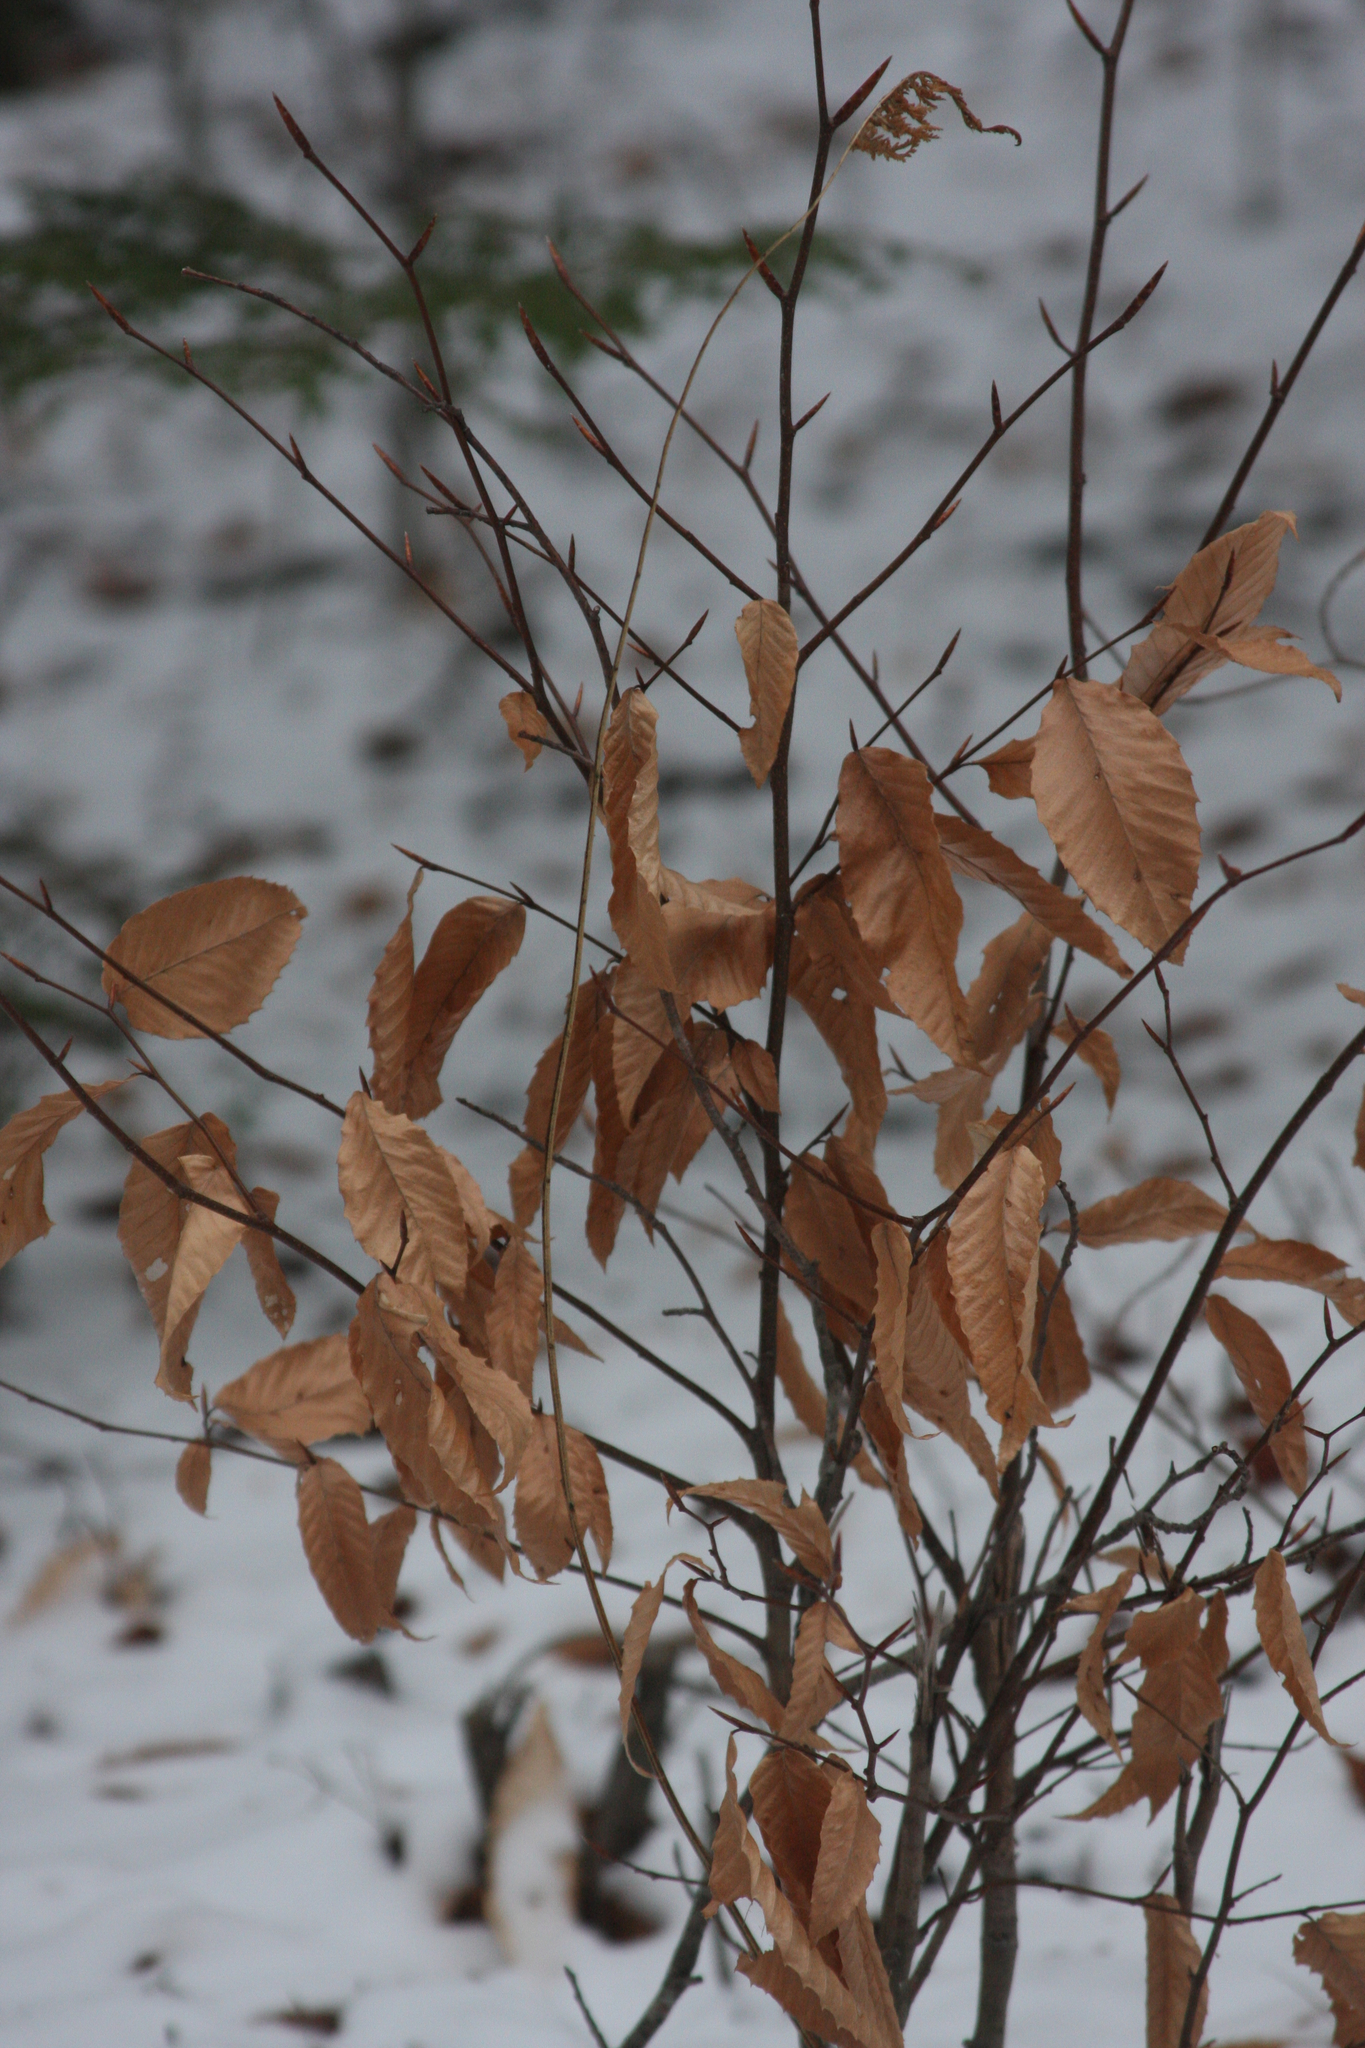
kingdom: Plantae
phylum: Tracheophyta
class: Magnoliopsida
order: Fagales
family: Fagaceae
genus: Fagus
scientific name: Fagus grandifolia
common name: American beech
